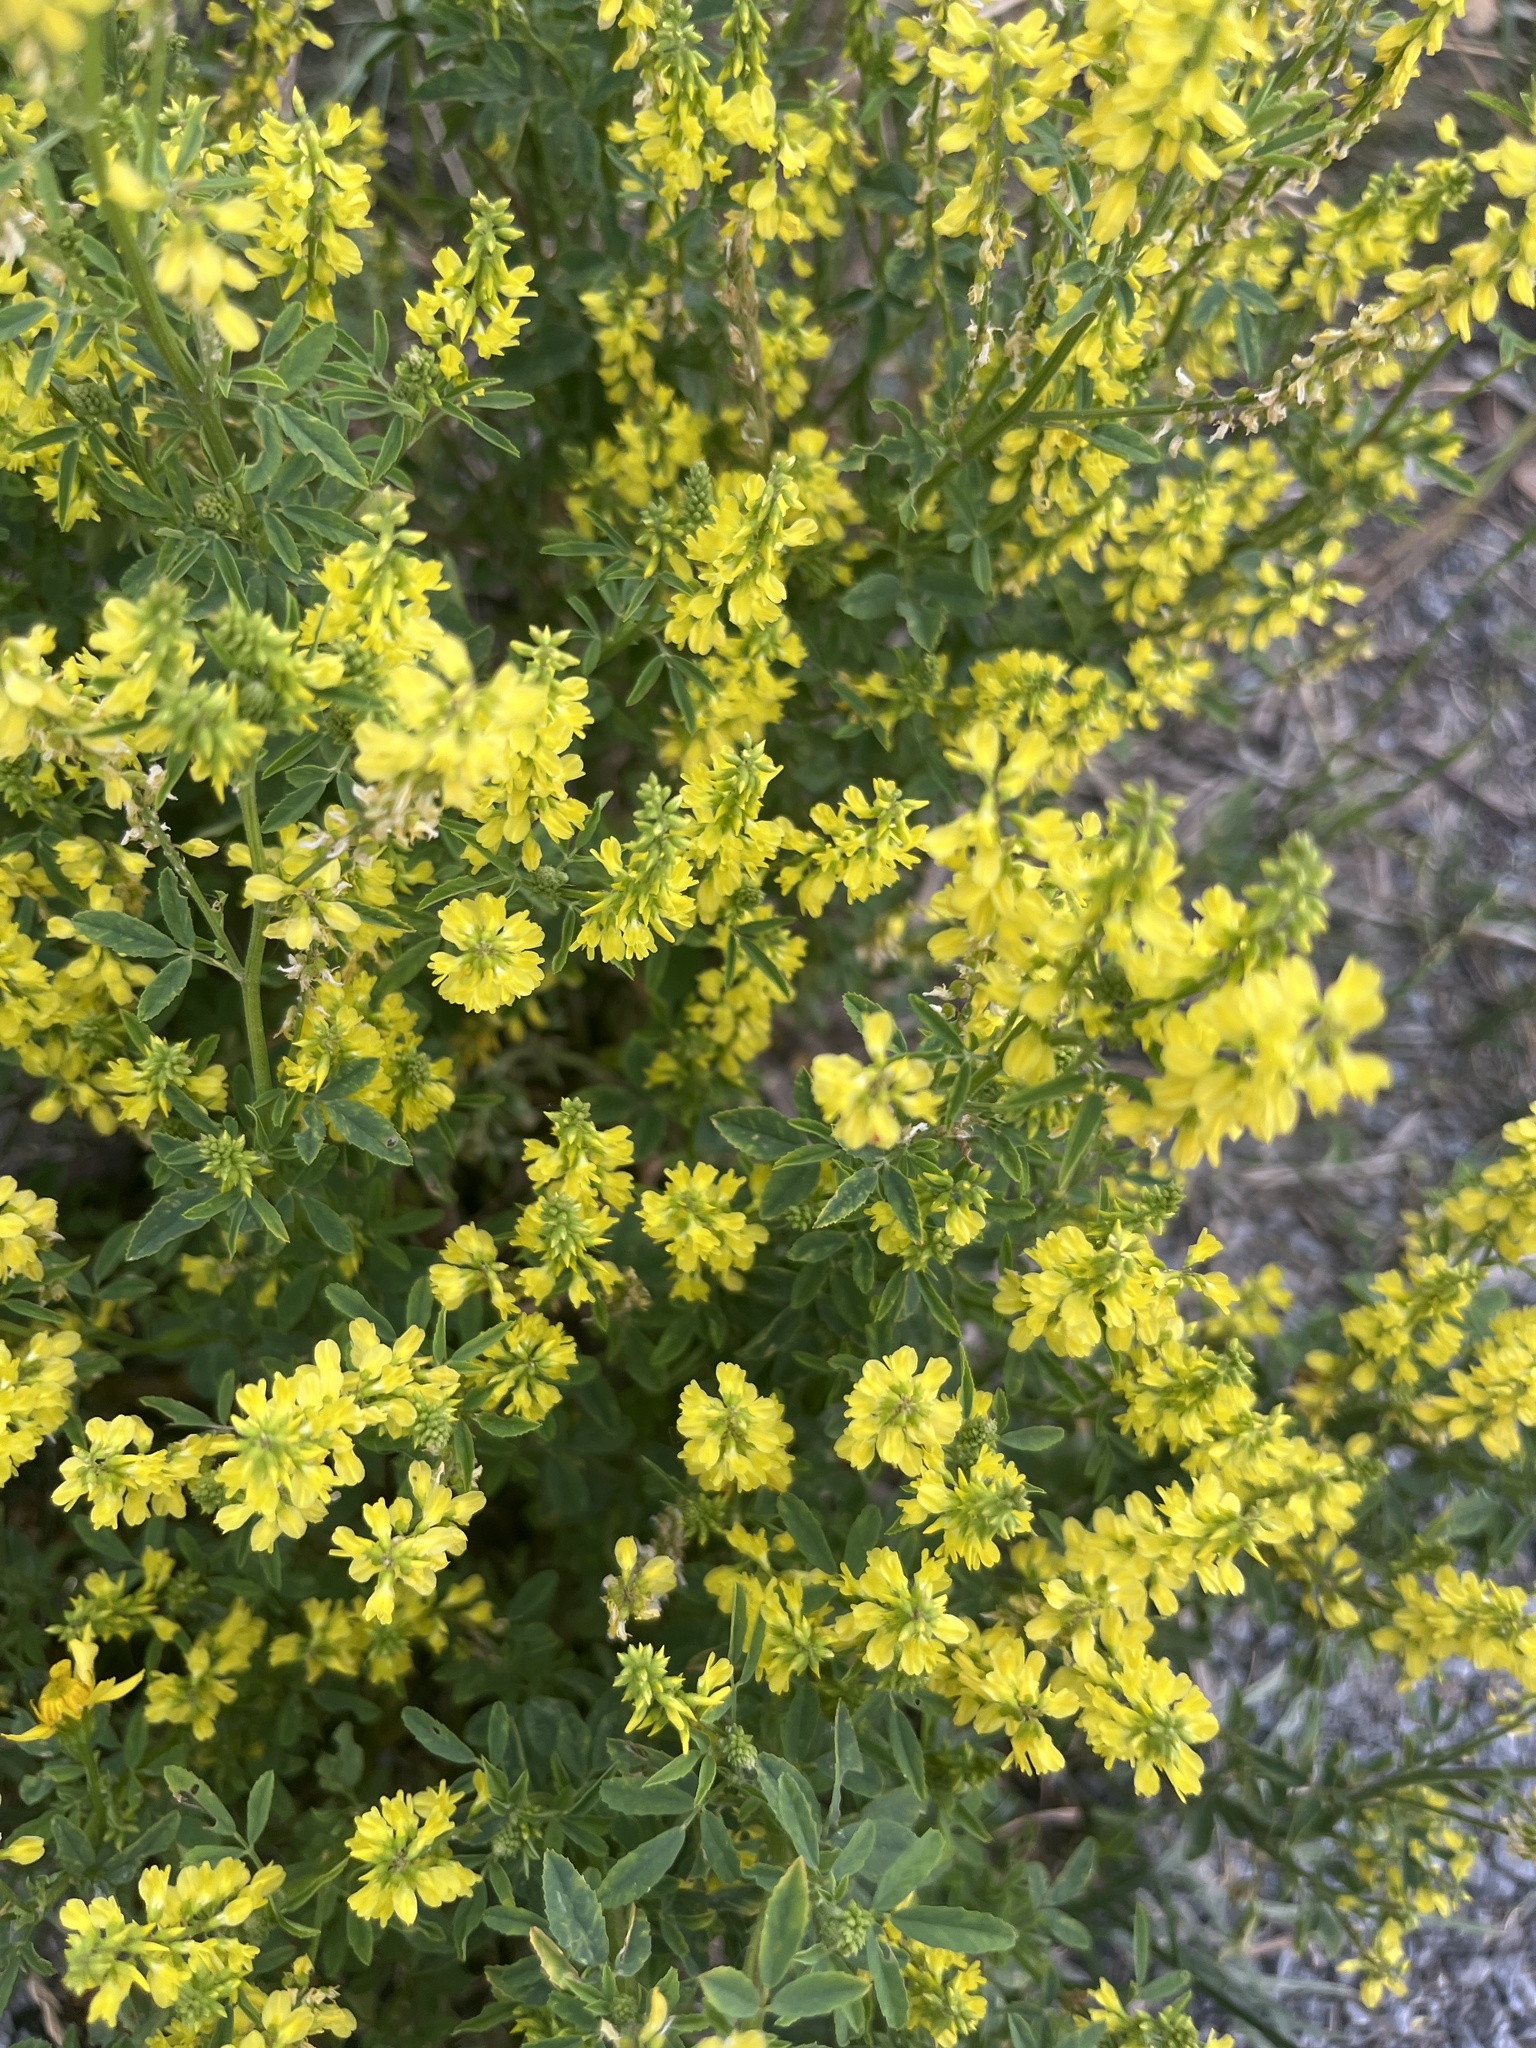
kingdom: Plantae
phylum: Tracheophyta
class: Magnoliopsida
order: Fabales
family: Fabaceae
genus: Melilotus
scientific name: Melilotus officinalis
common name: Sweetclover
